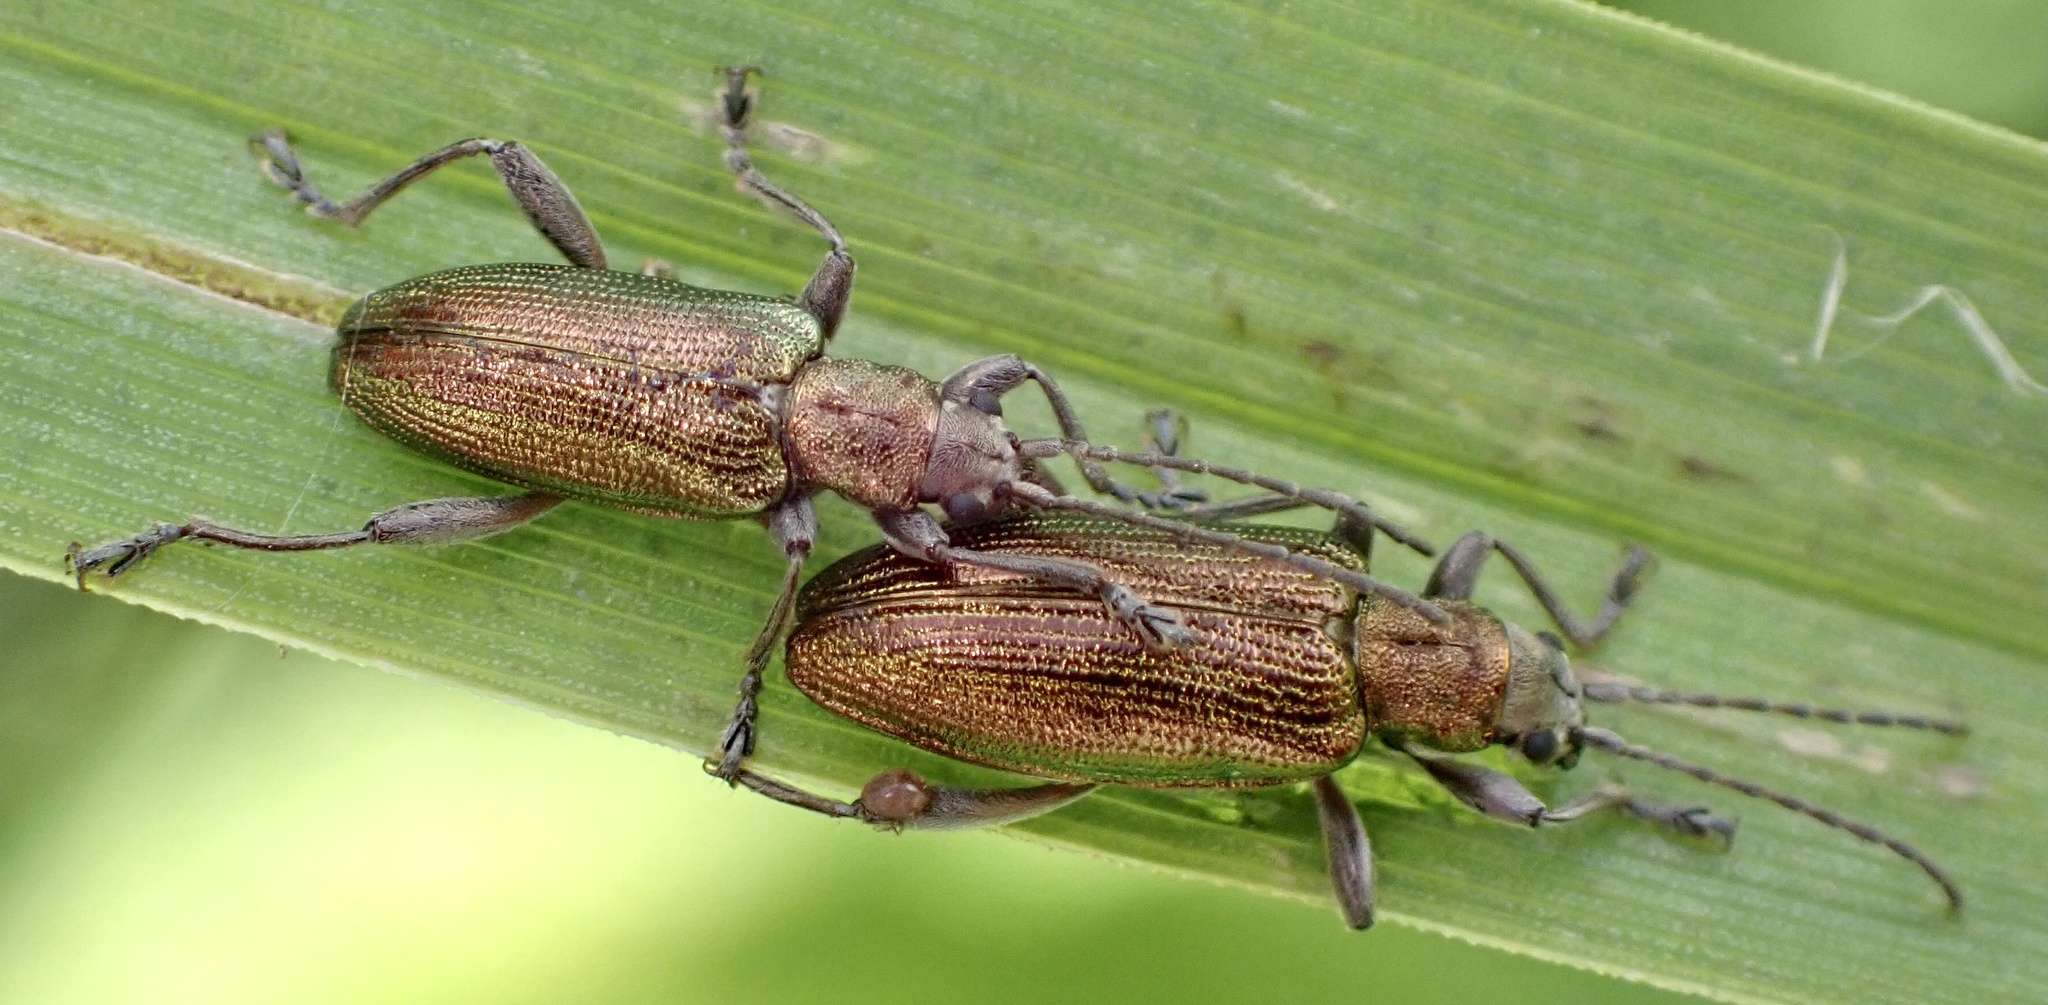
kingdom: Animalia
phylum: Arthropoda
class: Insecta
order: Coleoptera
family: Chrysomelidae
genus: Donacia
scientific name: Donacia semicuprea
